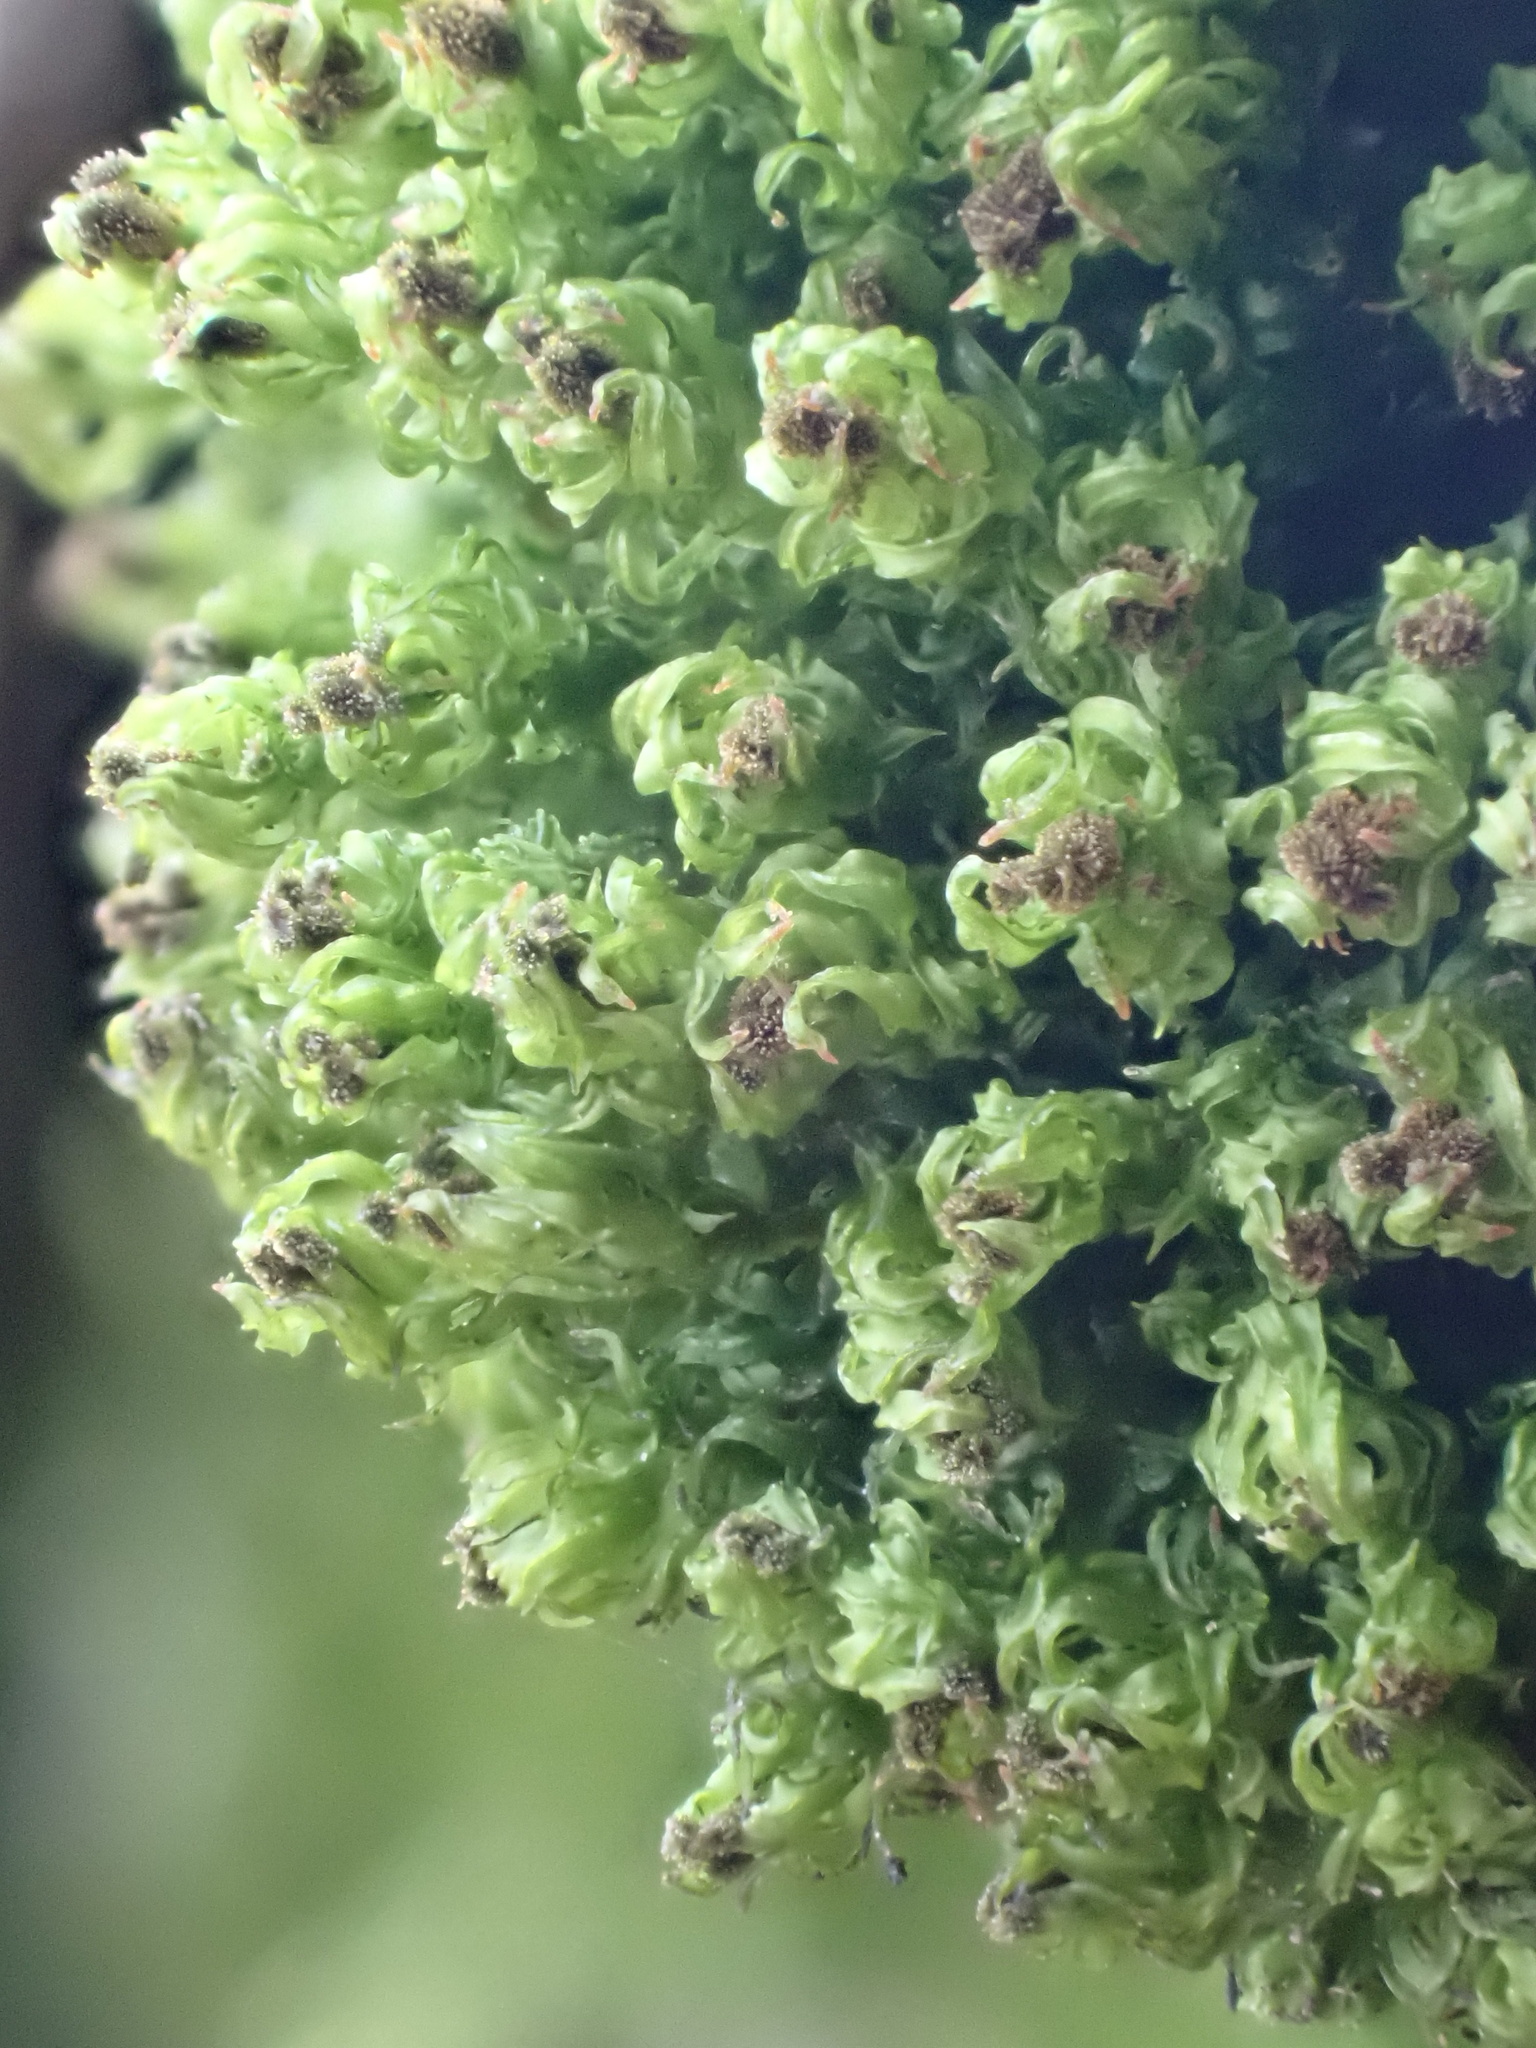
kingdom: Plantae
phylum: Bryophyta
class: Bryopsida
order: Orthotrichales
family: Orthotrichaceae
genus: Plenogemma
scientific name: Plenogemma phyllantha
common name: Frizzled pincushion
